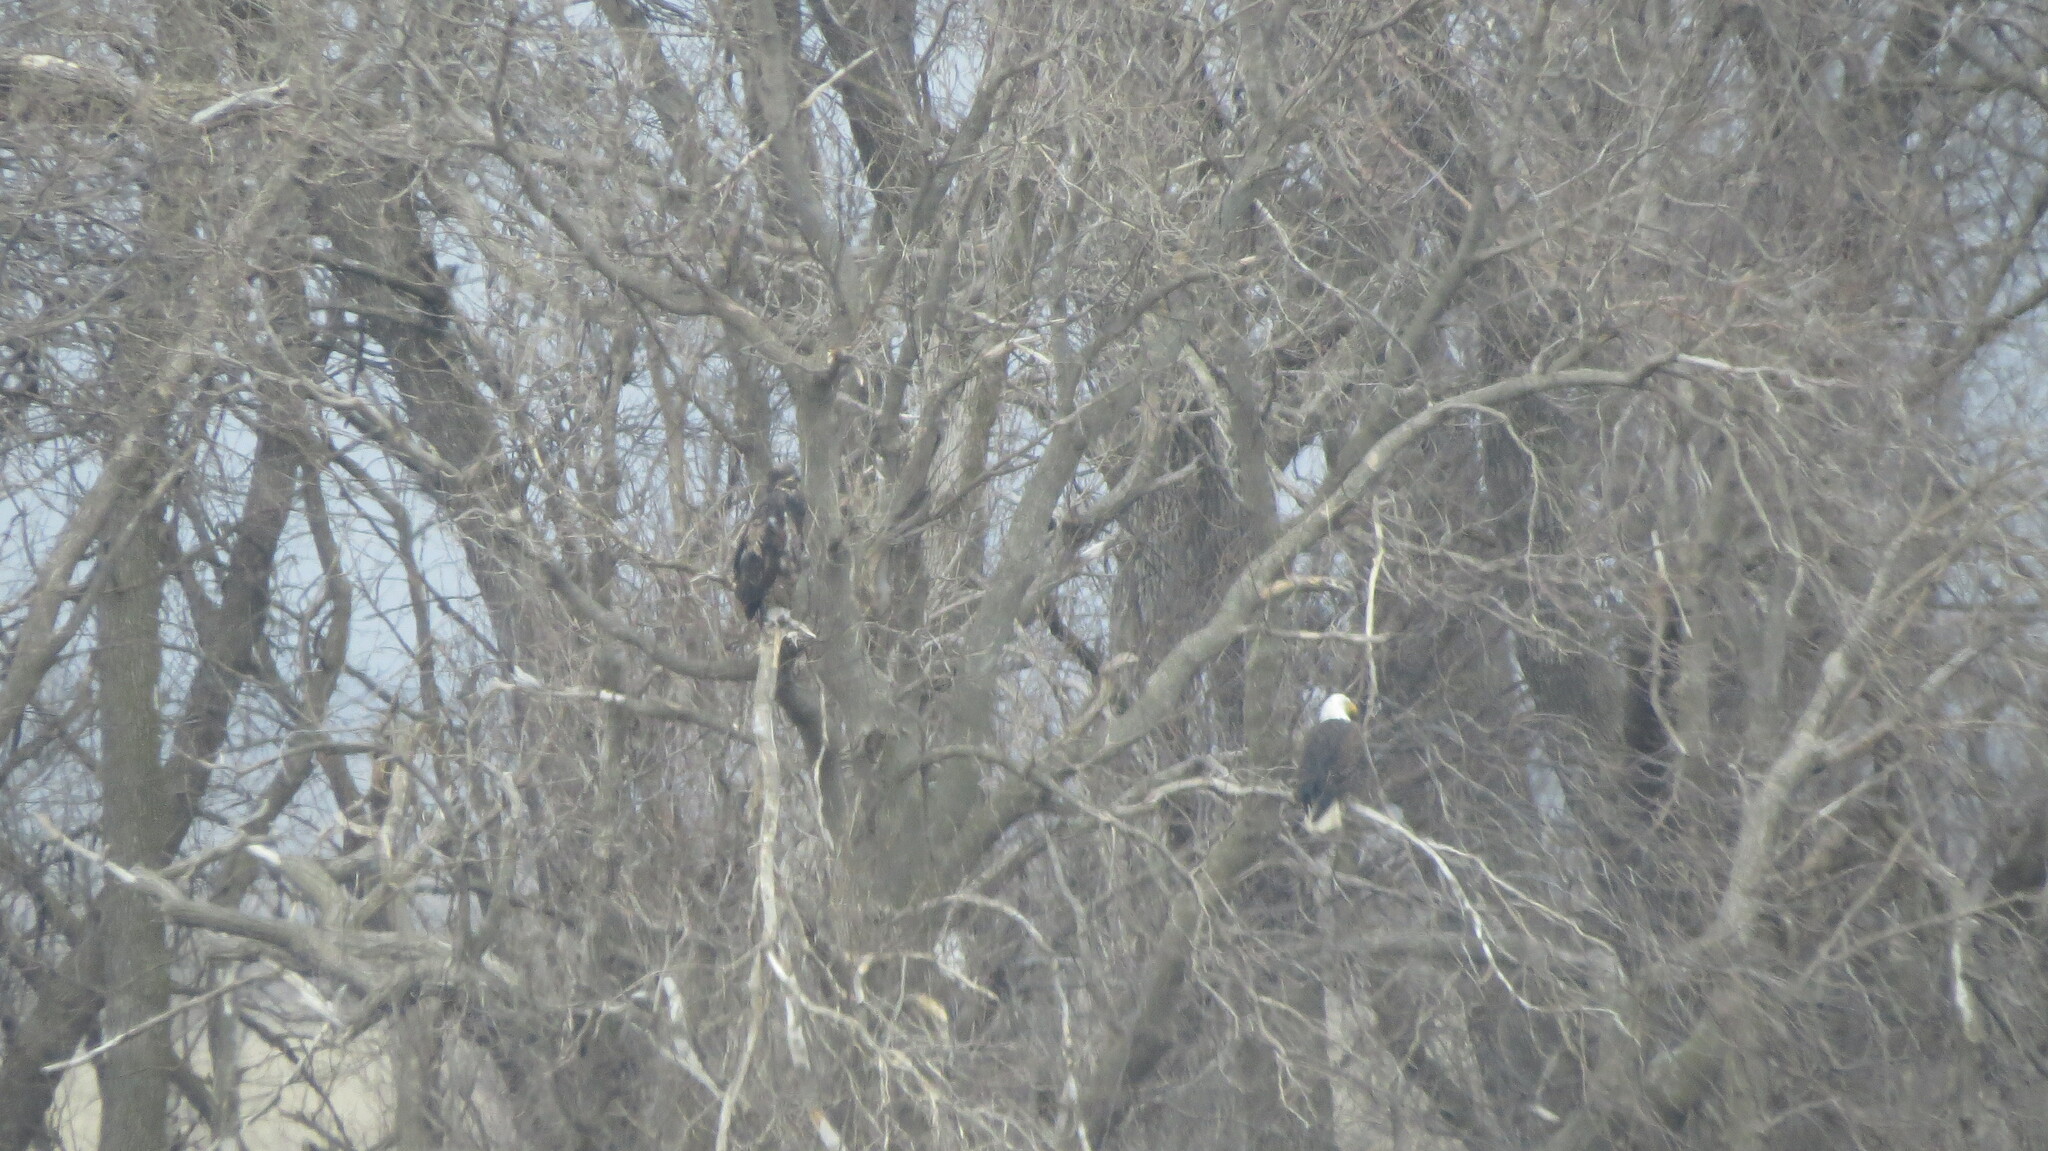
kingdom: Animalia
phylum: Chordata
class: Aves
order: Accipitriformes
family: Accipitridae
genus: Haliaeetus
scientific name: Haliaeetus leucocephalus
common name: Bald eagle
